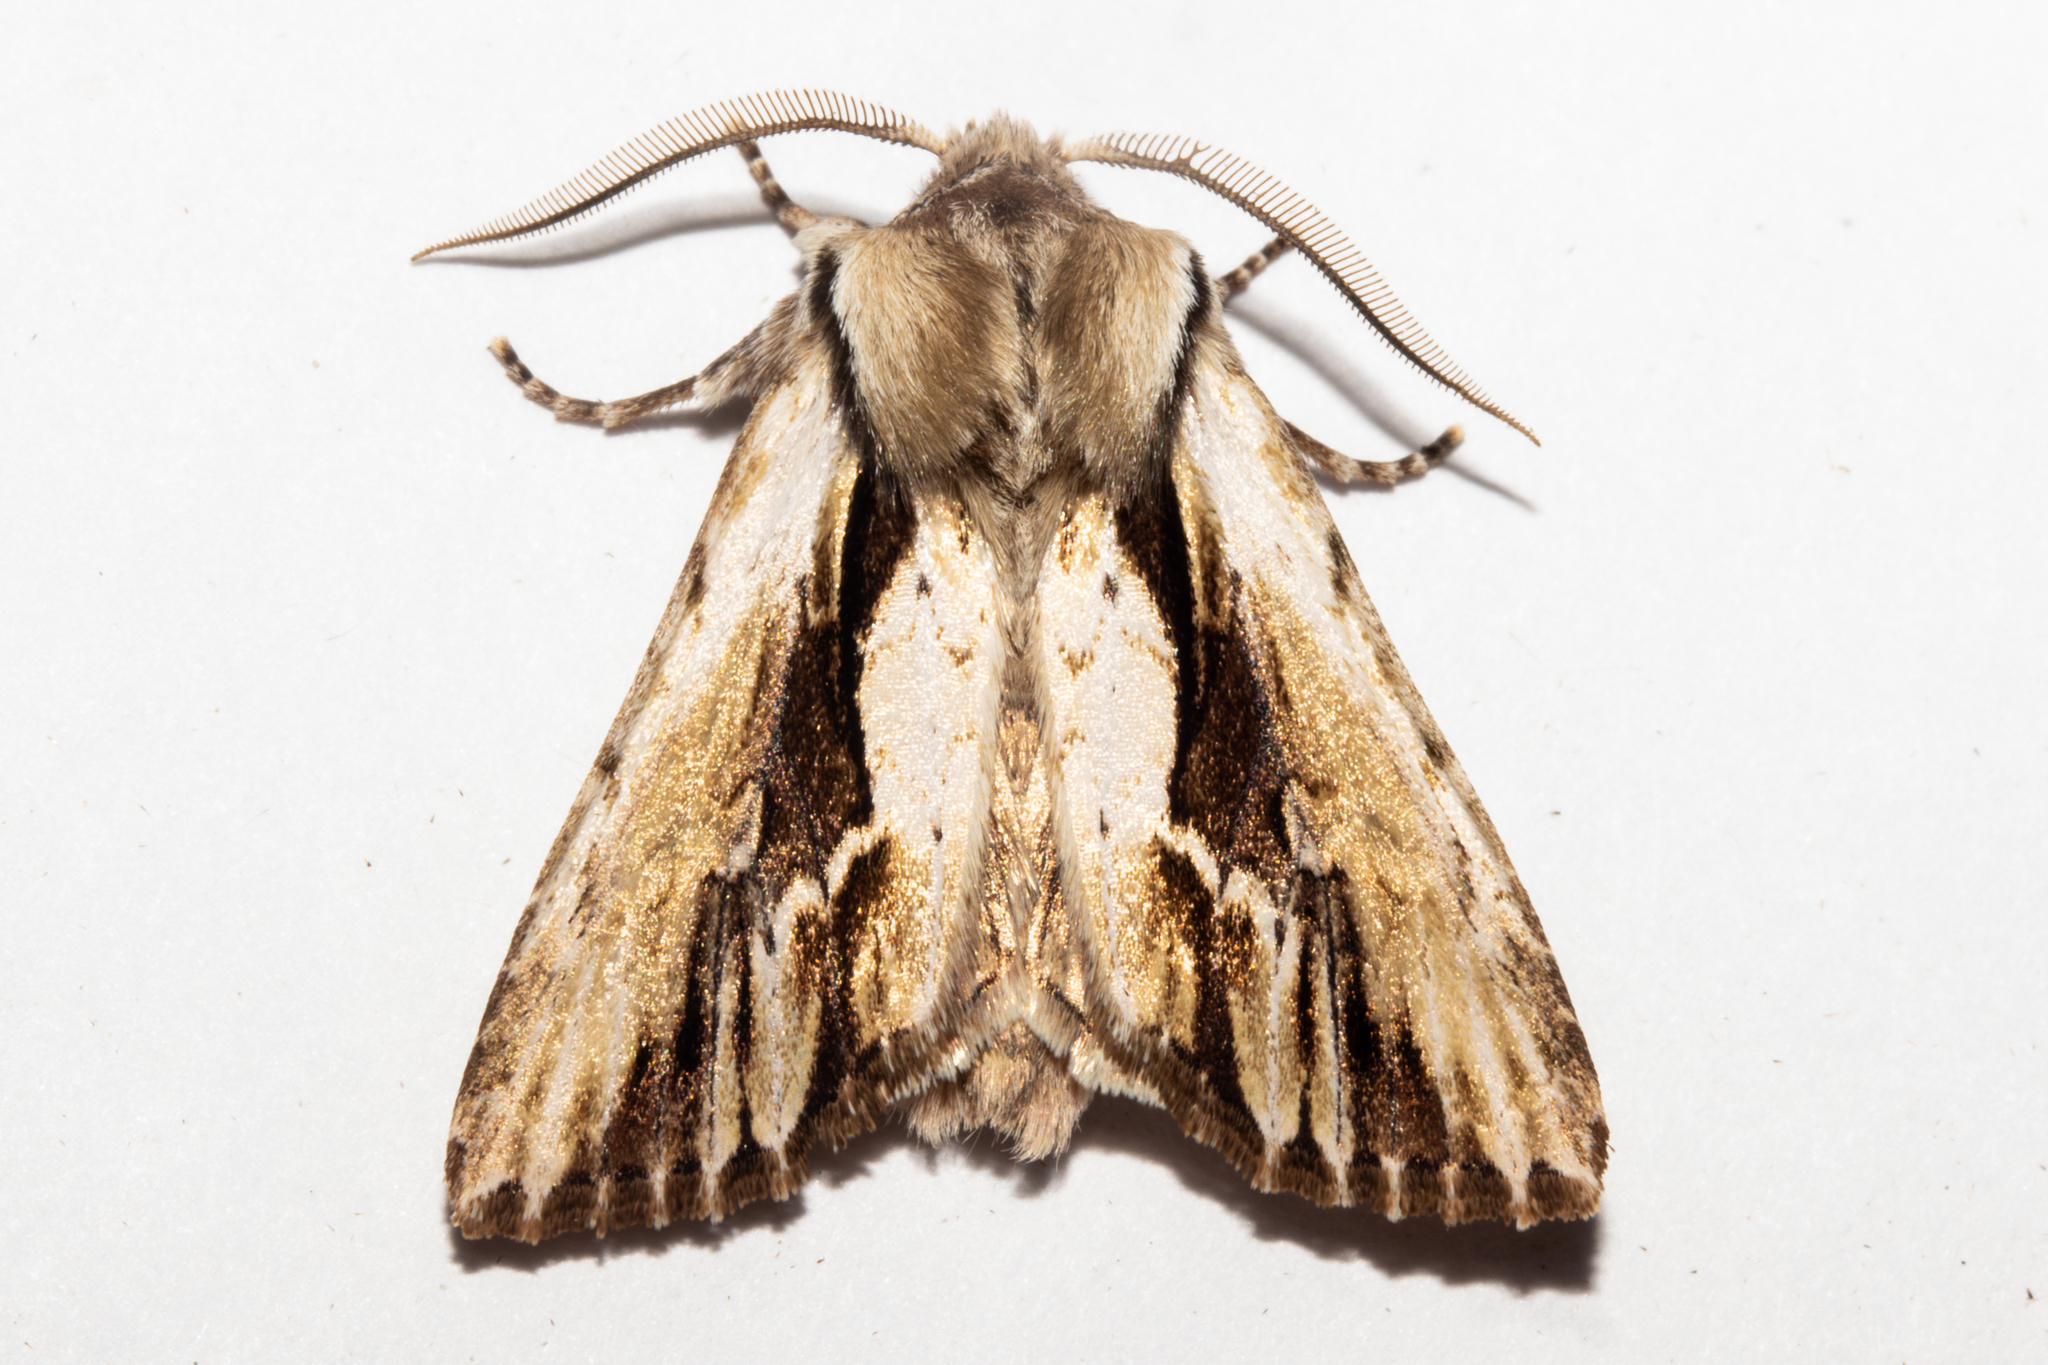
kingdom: Animalia
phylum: Arthropoda
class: Insecta
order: Lepidoptera
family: Noctuidae
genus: Ichneutica
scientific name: Ichneutica
